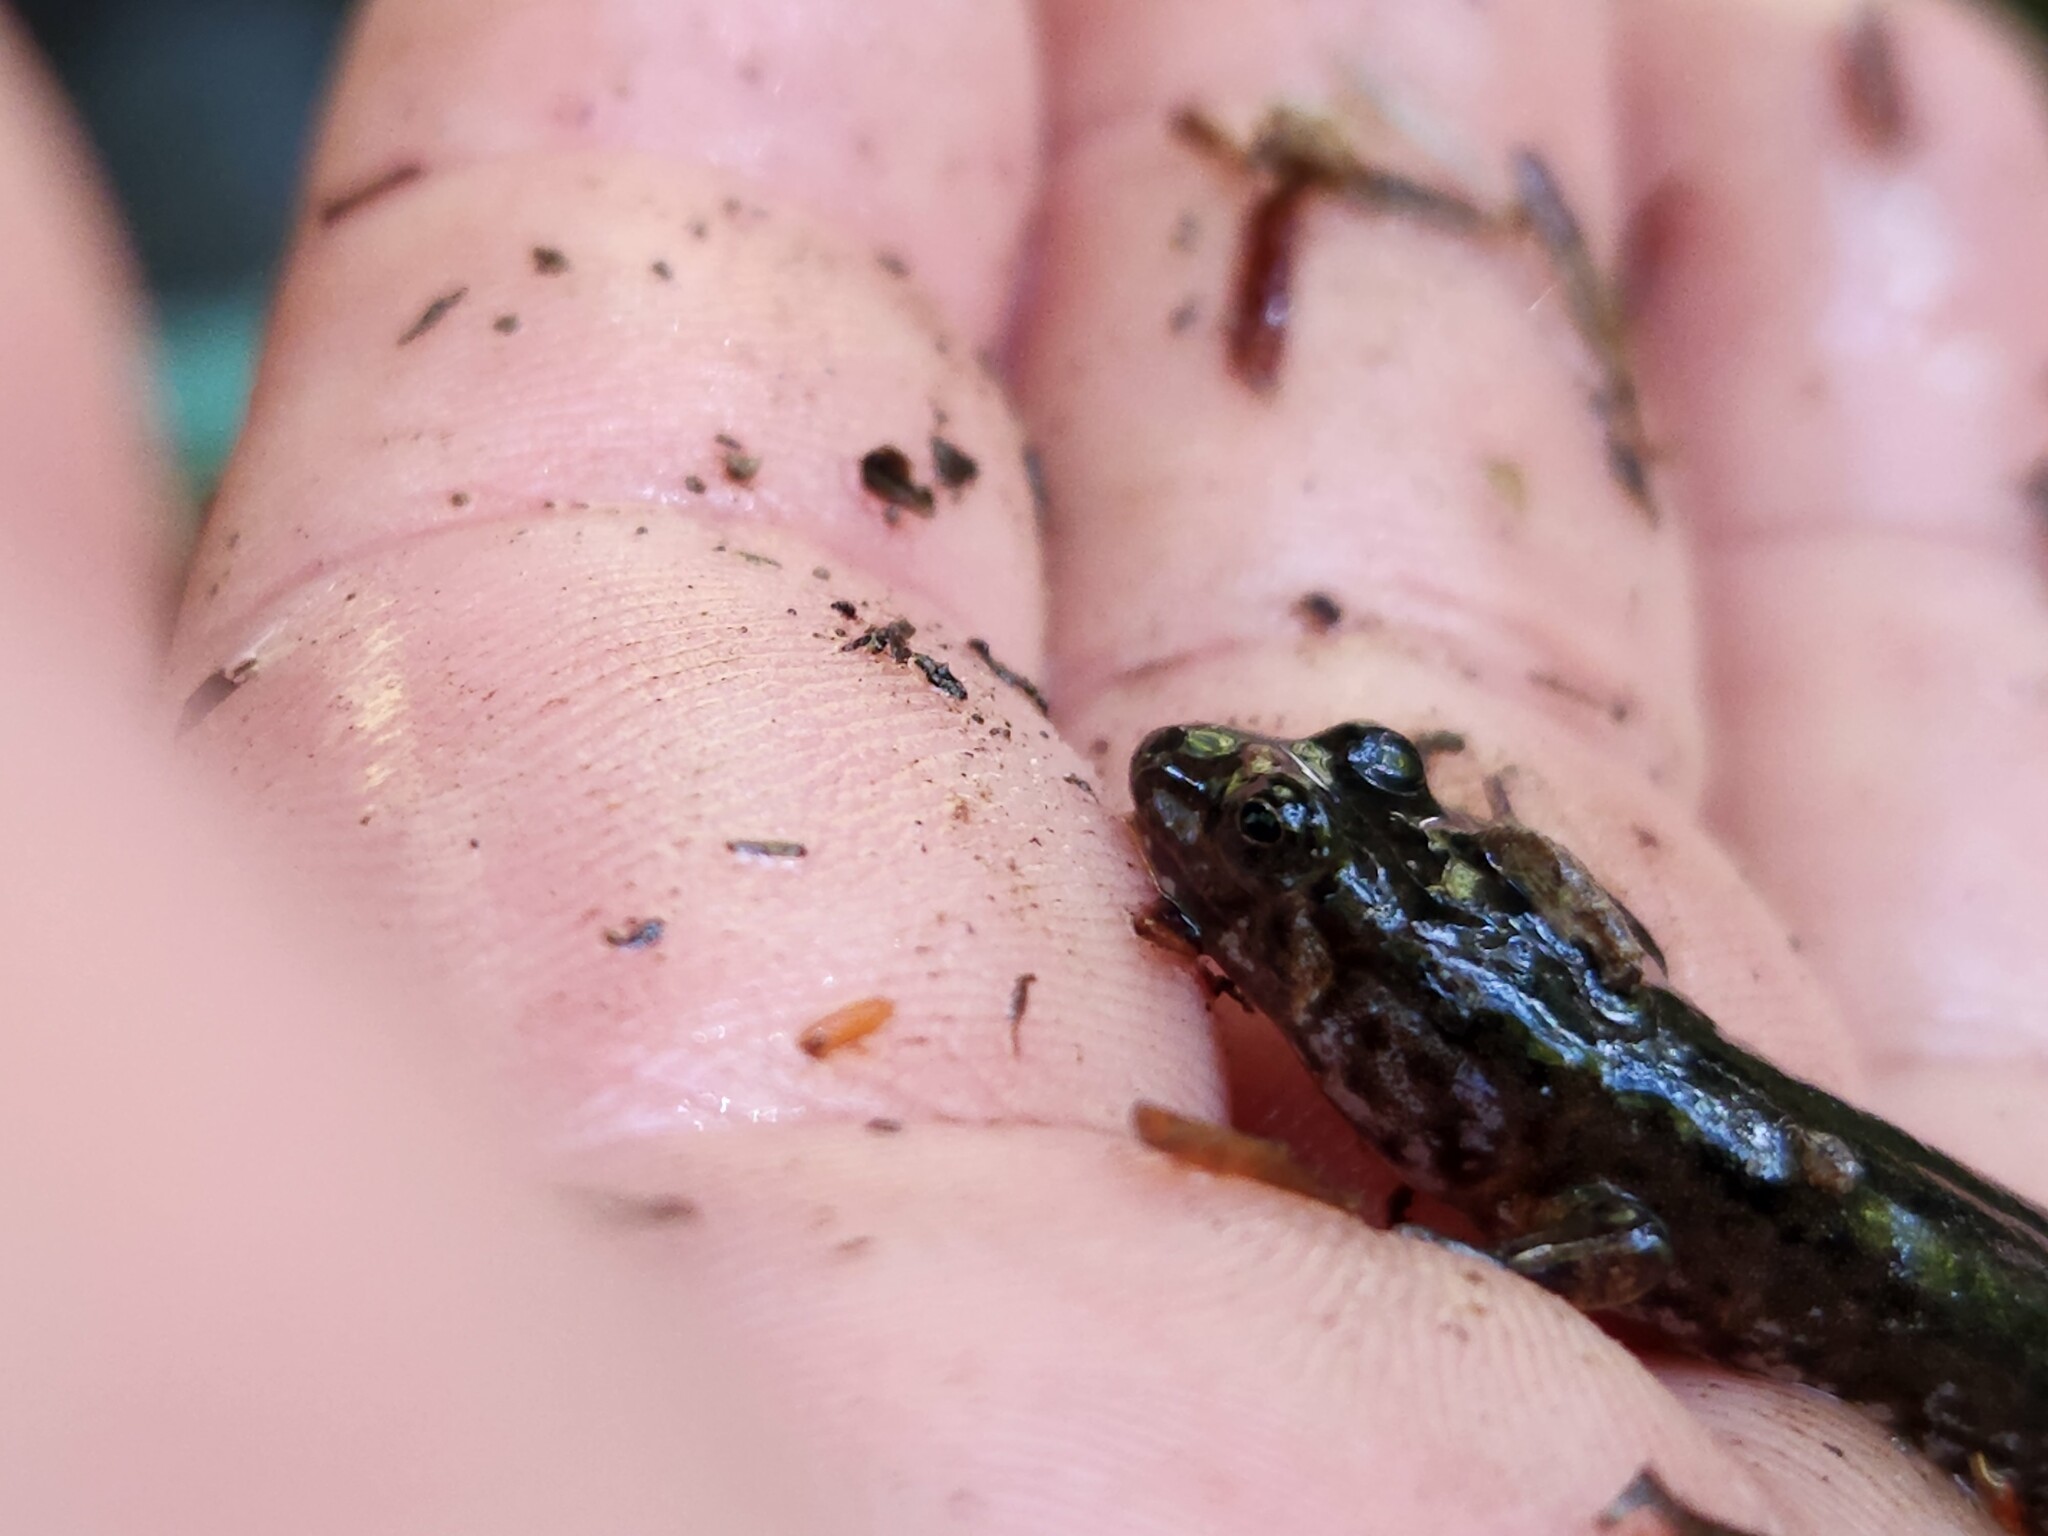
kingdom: Animalia
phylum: Chordata
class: Amphibia
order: Caudata
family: Plethodontidae
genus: Desmognathus
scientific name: Desmognathus monticola
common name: Seal salamander
